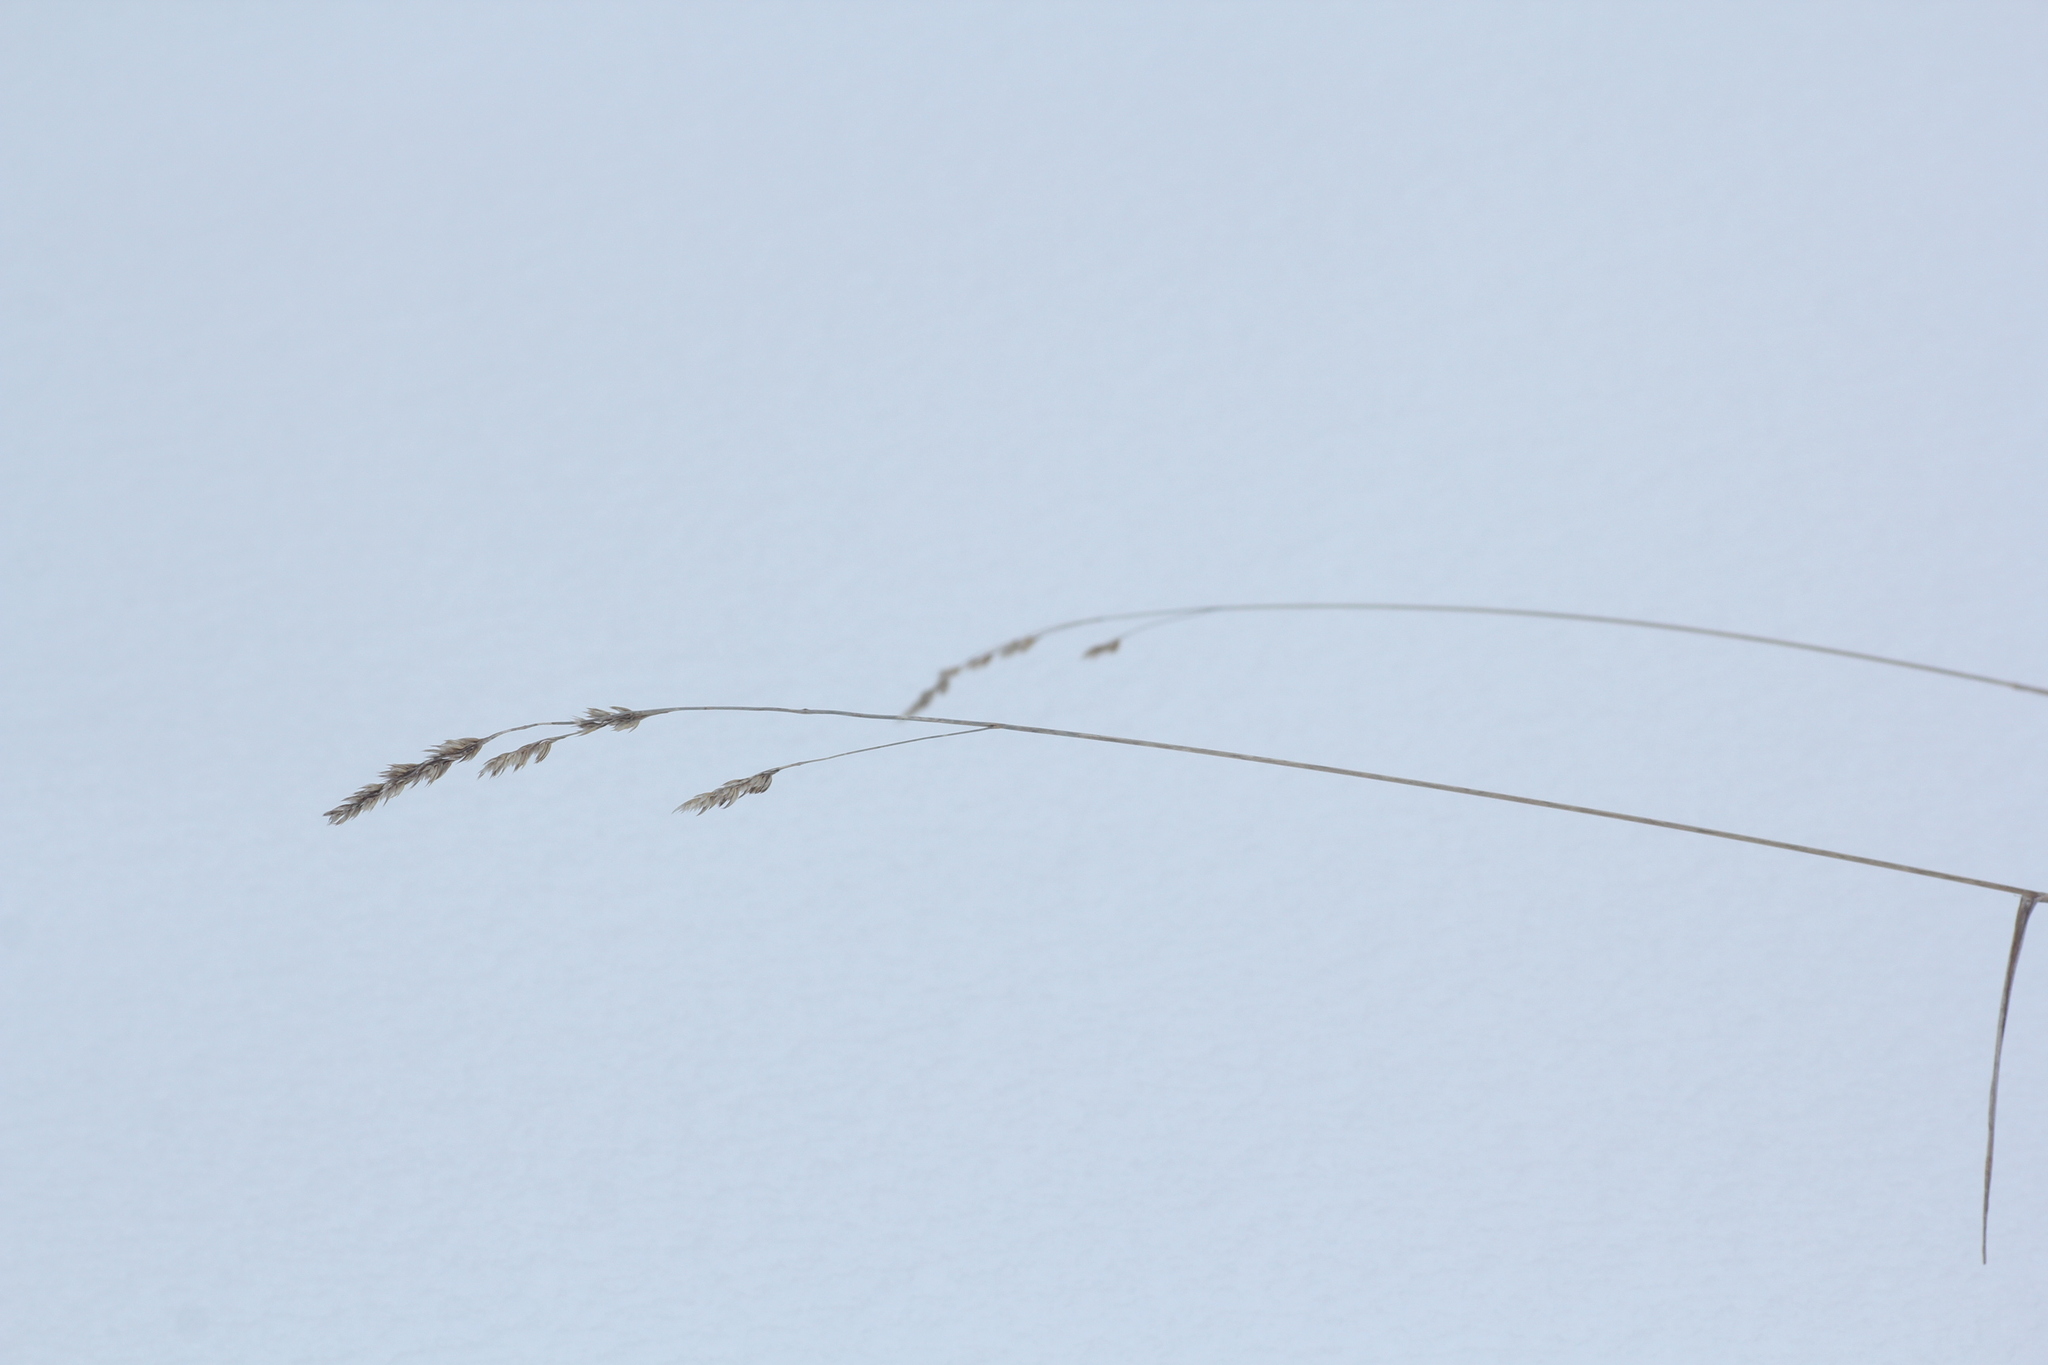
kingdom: Plantae
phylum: Tracheophyta
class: Liliopsida
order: Poales
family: Poaceae
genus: Dactylis
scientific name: Dactylis glomerata
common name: Orchardgrass
